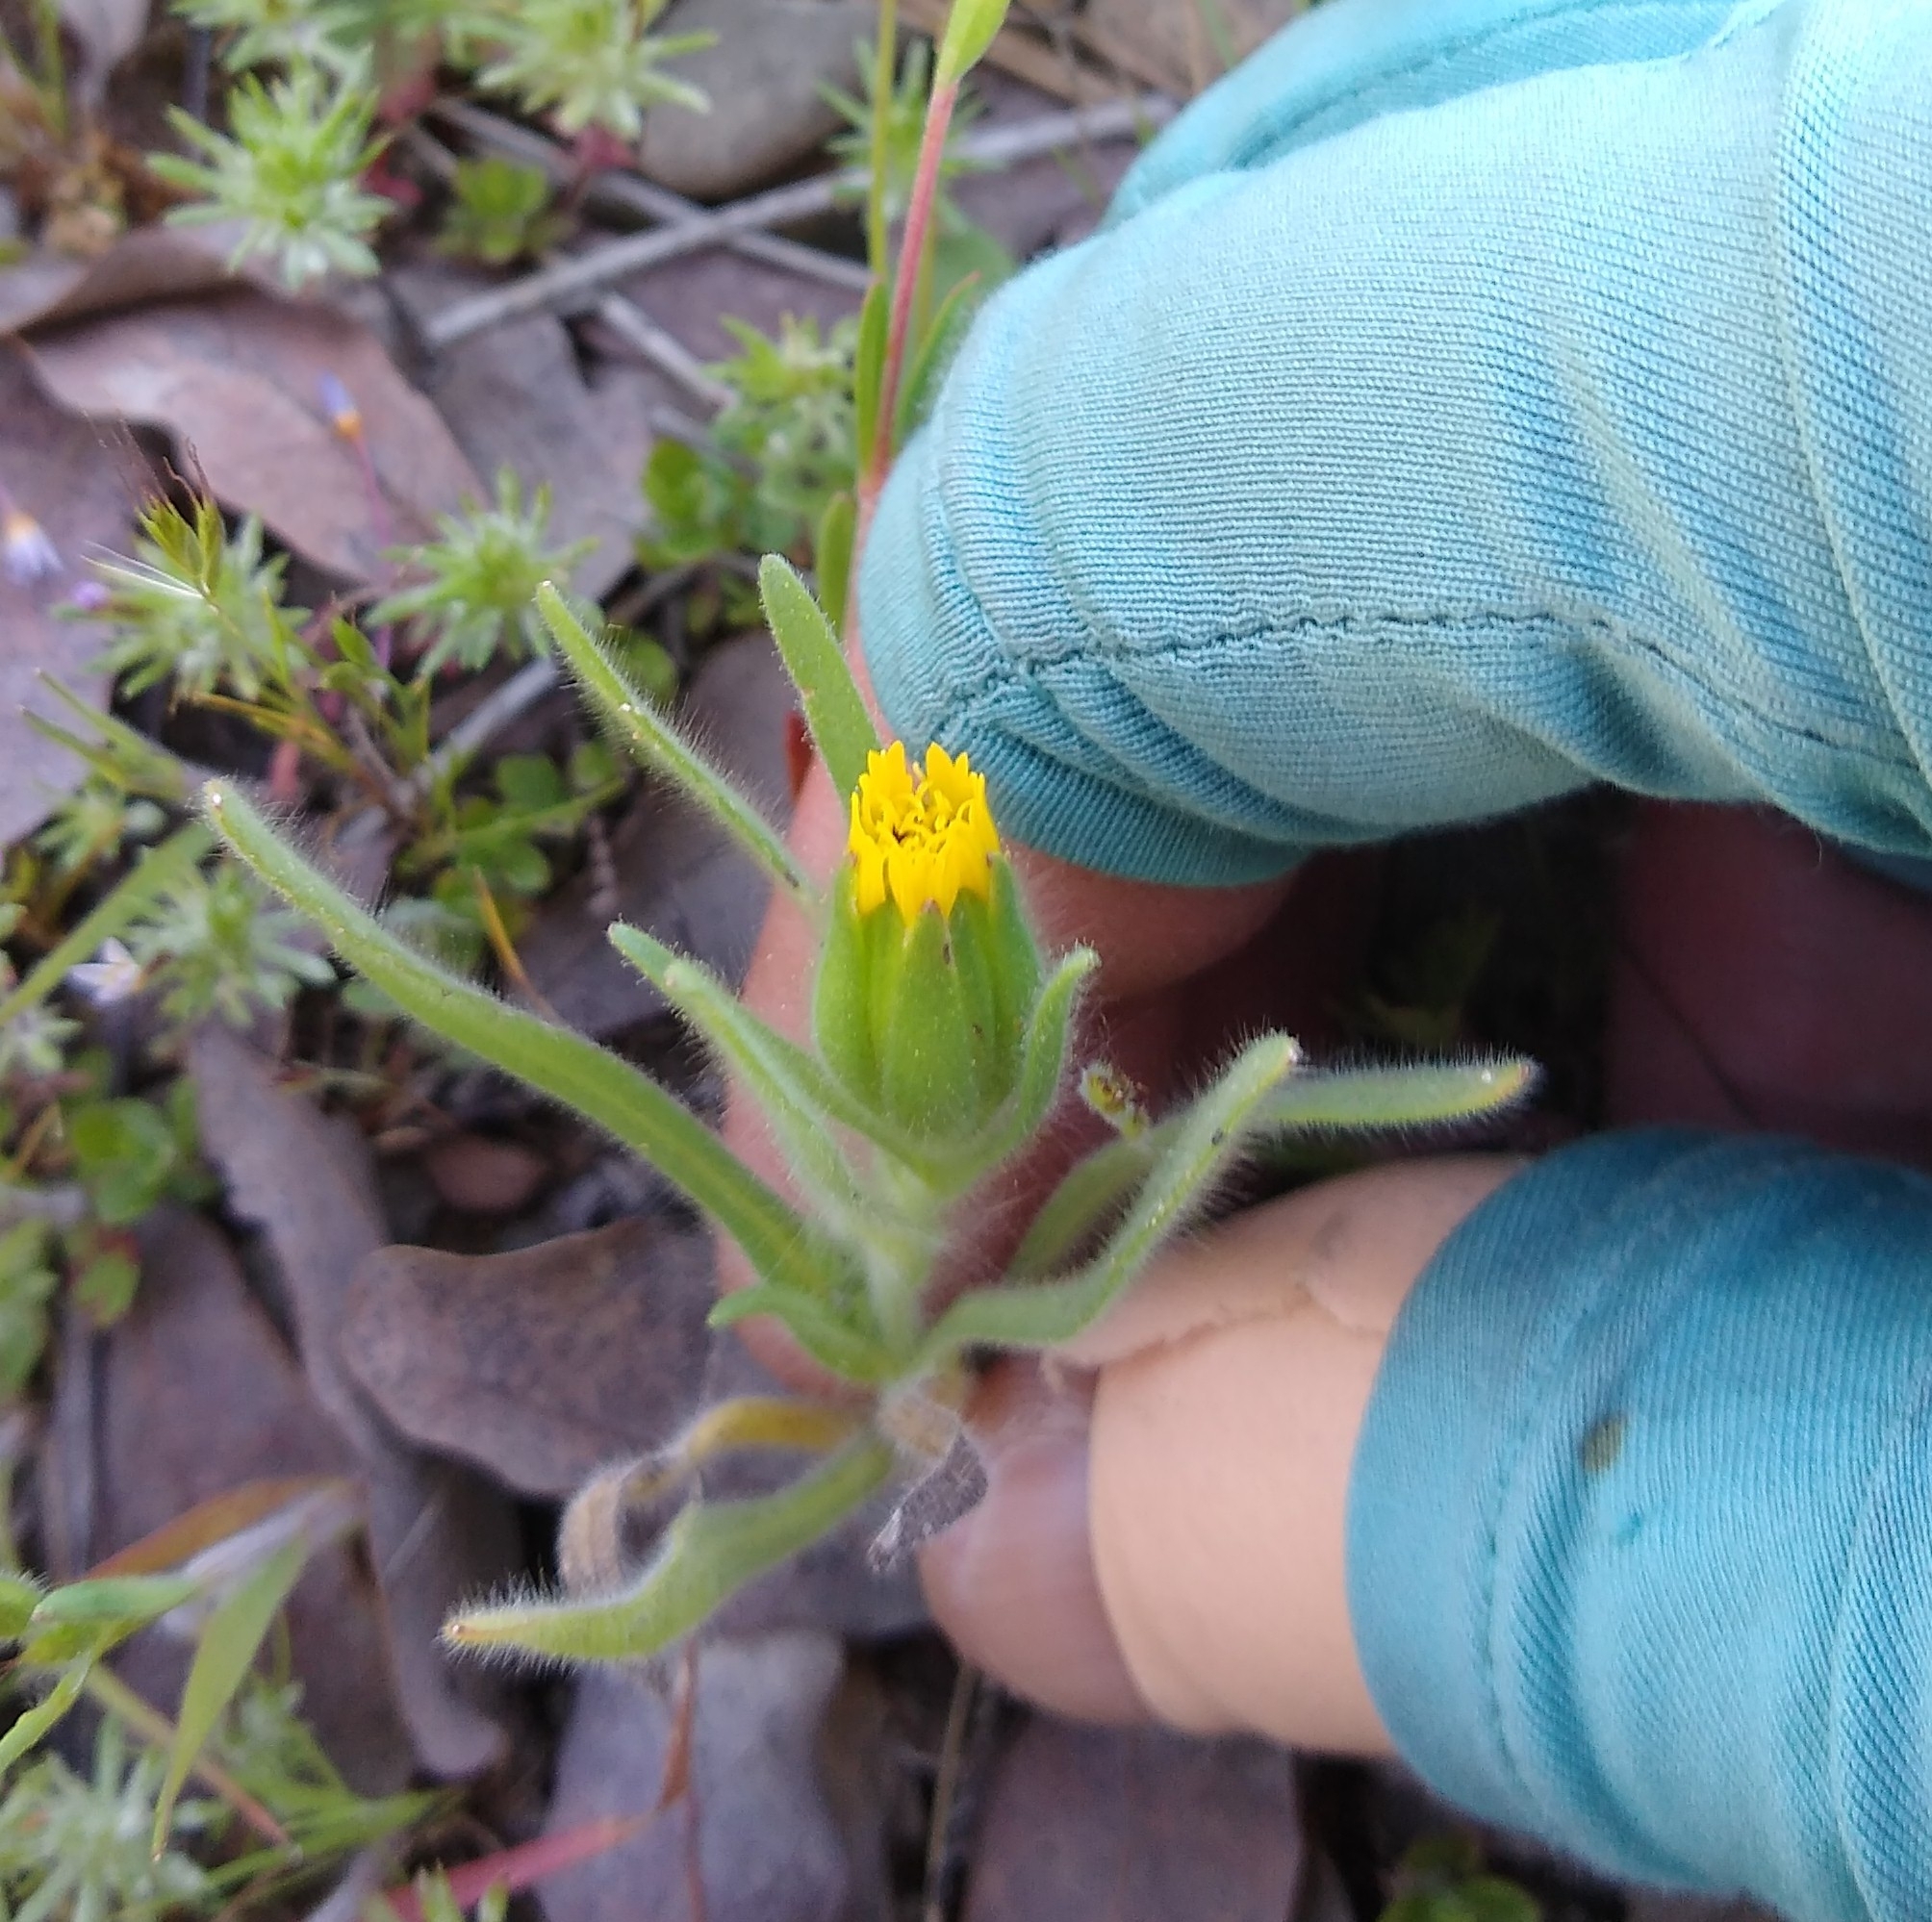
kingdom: Plantae
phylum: Tracheophyta
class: Magnoliopsida
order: Asterales
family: Asteraceae
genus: Achyrachaena
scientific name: Achyrachaena mollis
